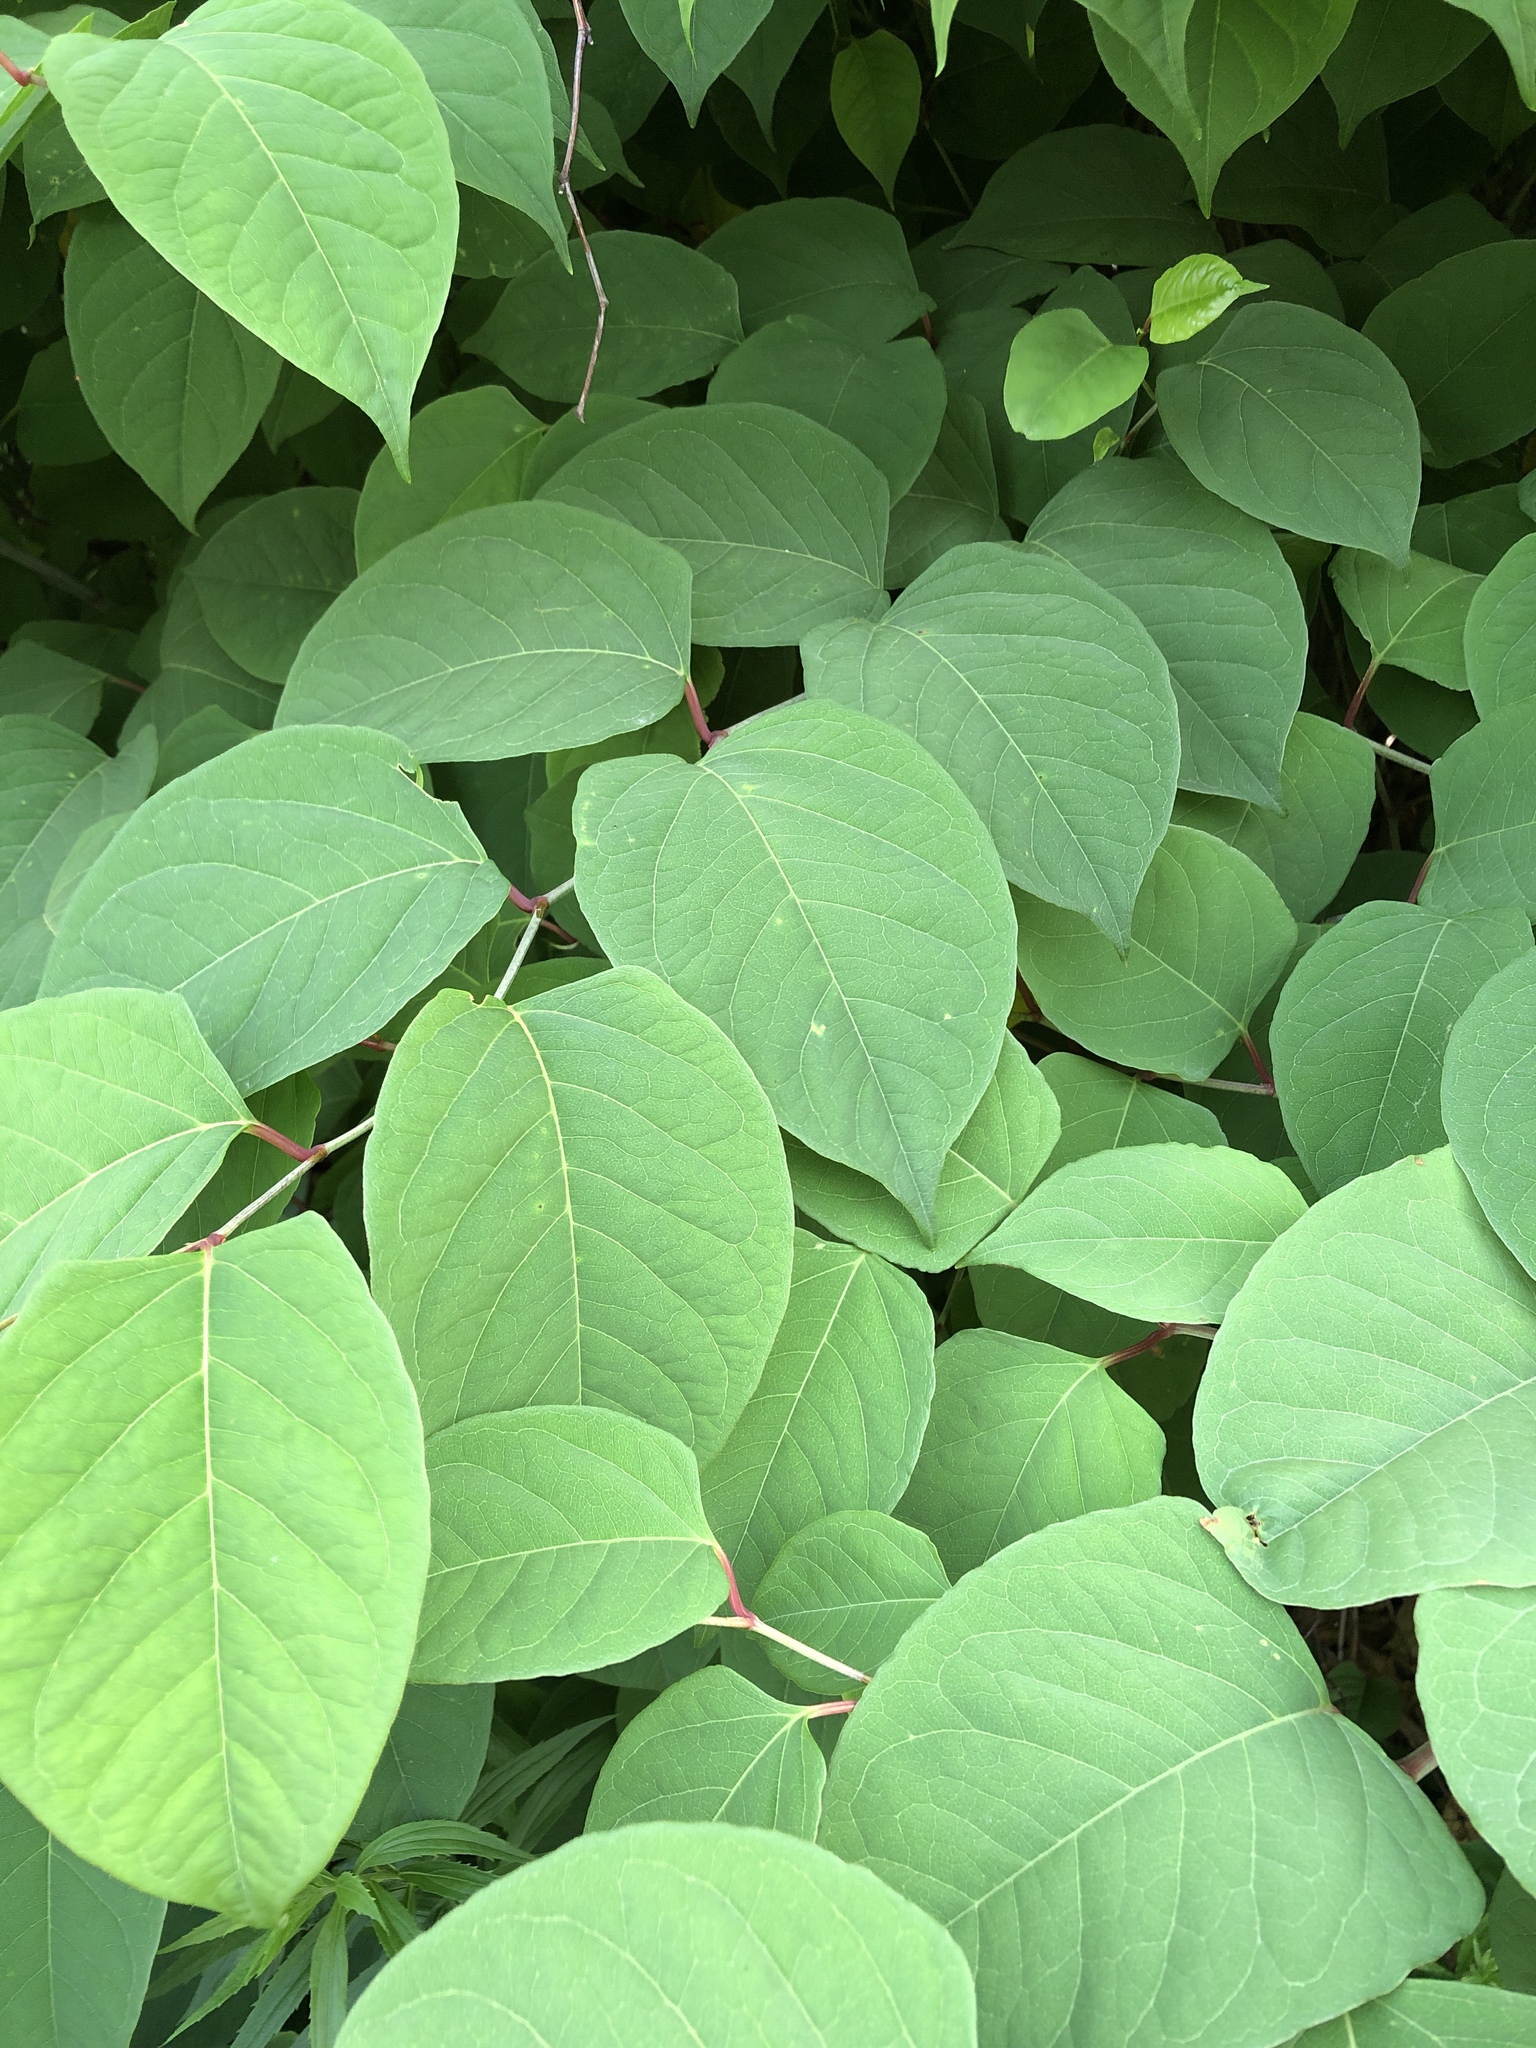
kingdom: Plantae
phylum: Tracheophyta
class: Magnoliopsida
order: Caryophyllales
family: Polygonaceae
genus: Reynoutria
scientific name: Reynoutria japonica
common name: Japanese knotweed
